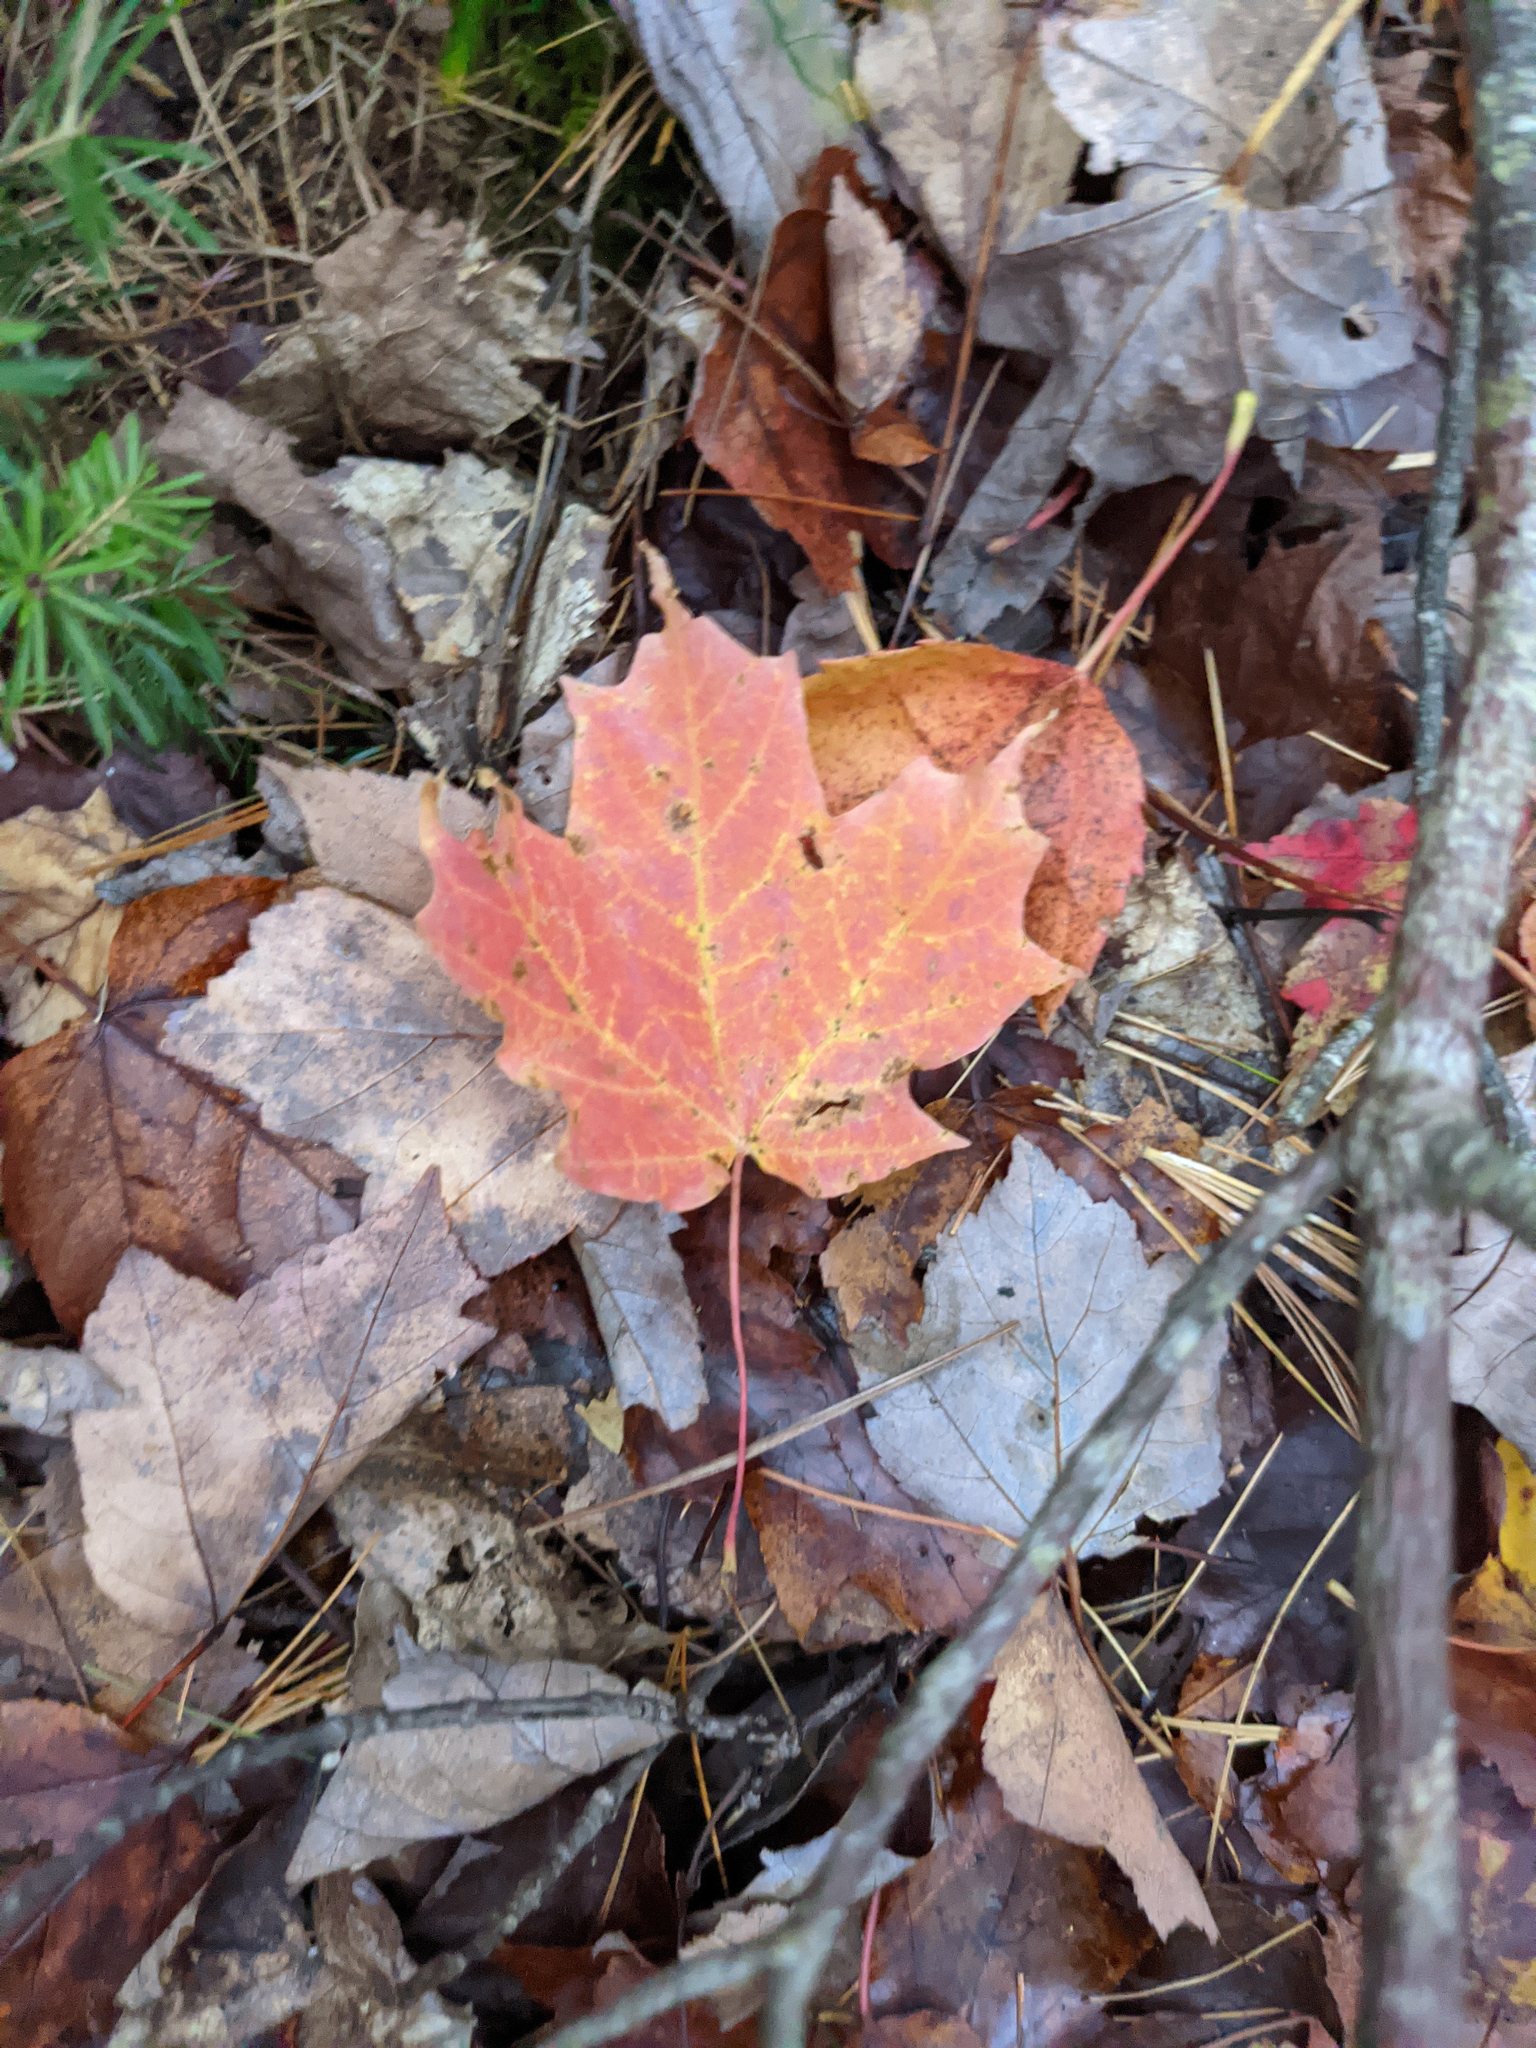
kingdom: Plantae
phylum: Tracheophyta
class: Magnoliopsida
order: Sapindales
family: Sapindaceae
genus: Acer
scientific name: Acer saccharum
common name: Sugar maple
